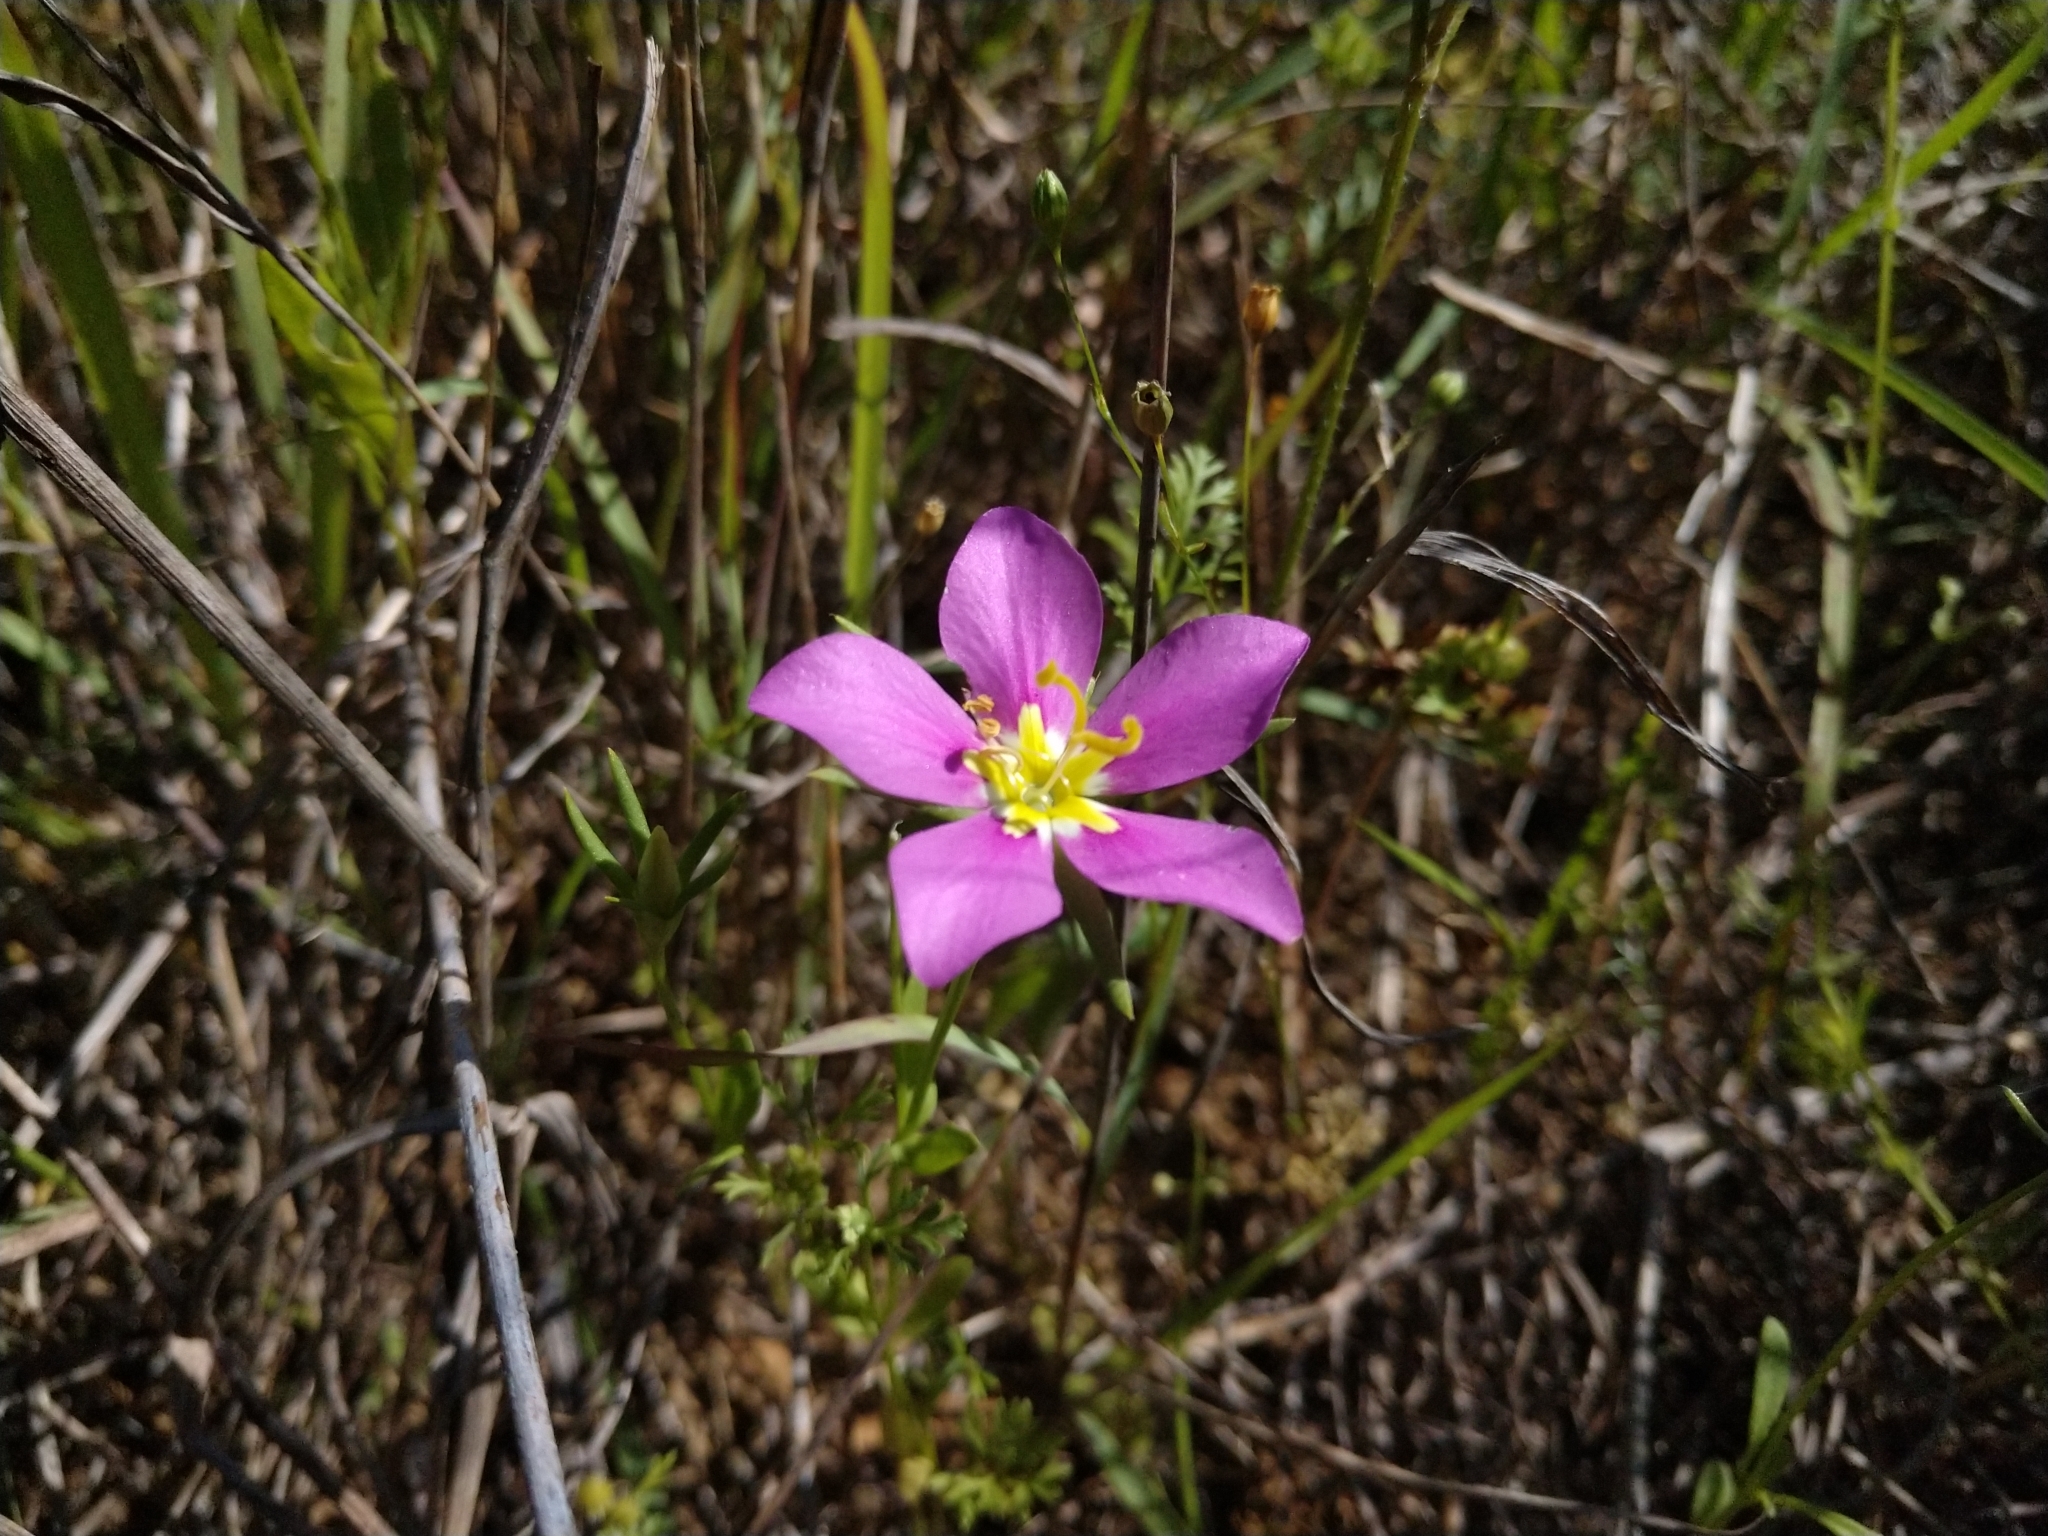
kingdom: Plantae
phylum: Tracheophyta
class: Magnoliopsida
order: Gentianales
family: Gentianaceae
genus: Sabatia
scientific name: Sabatia campestris
